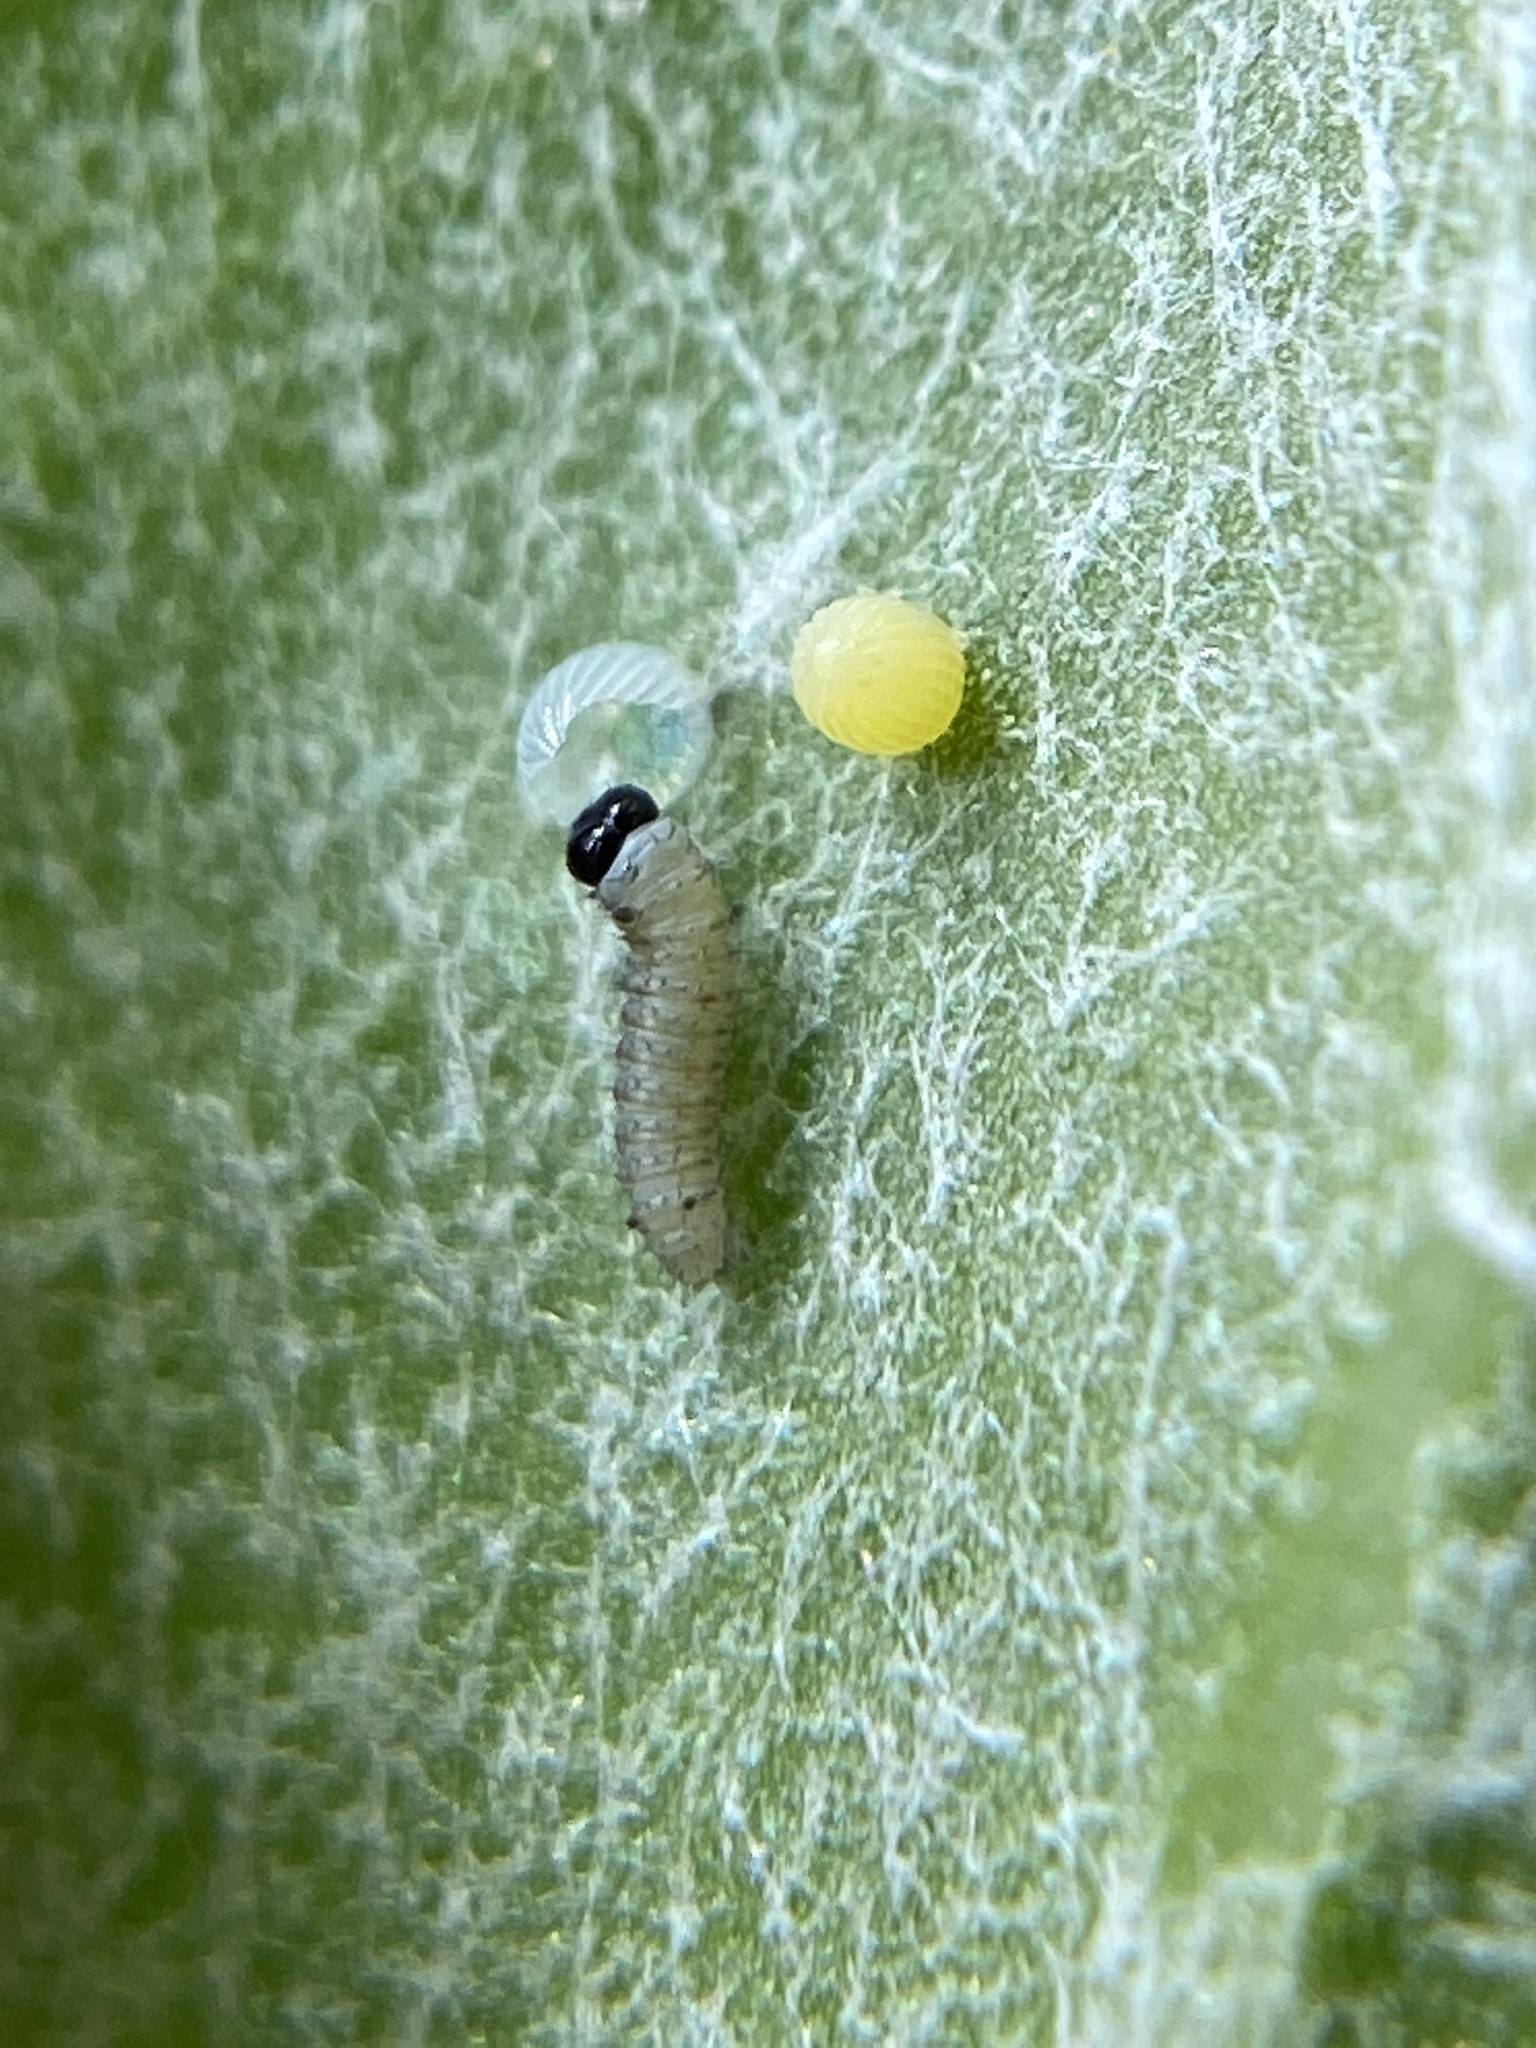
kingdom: Animalia
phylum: Arthropoda
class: Insecta
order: Lepidoptera
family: Nymphalidae
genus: Danaus
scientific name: Danaus plexippus
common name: Monarch
